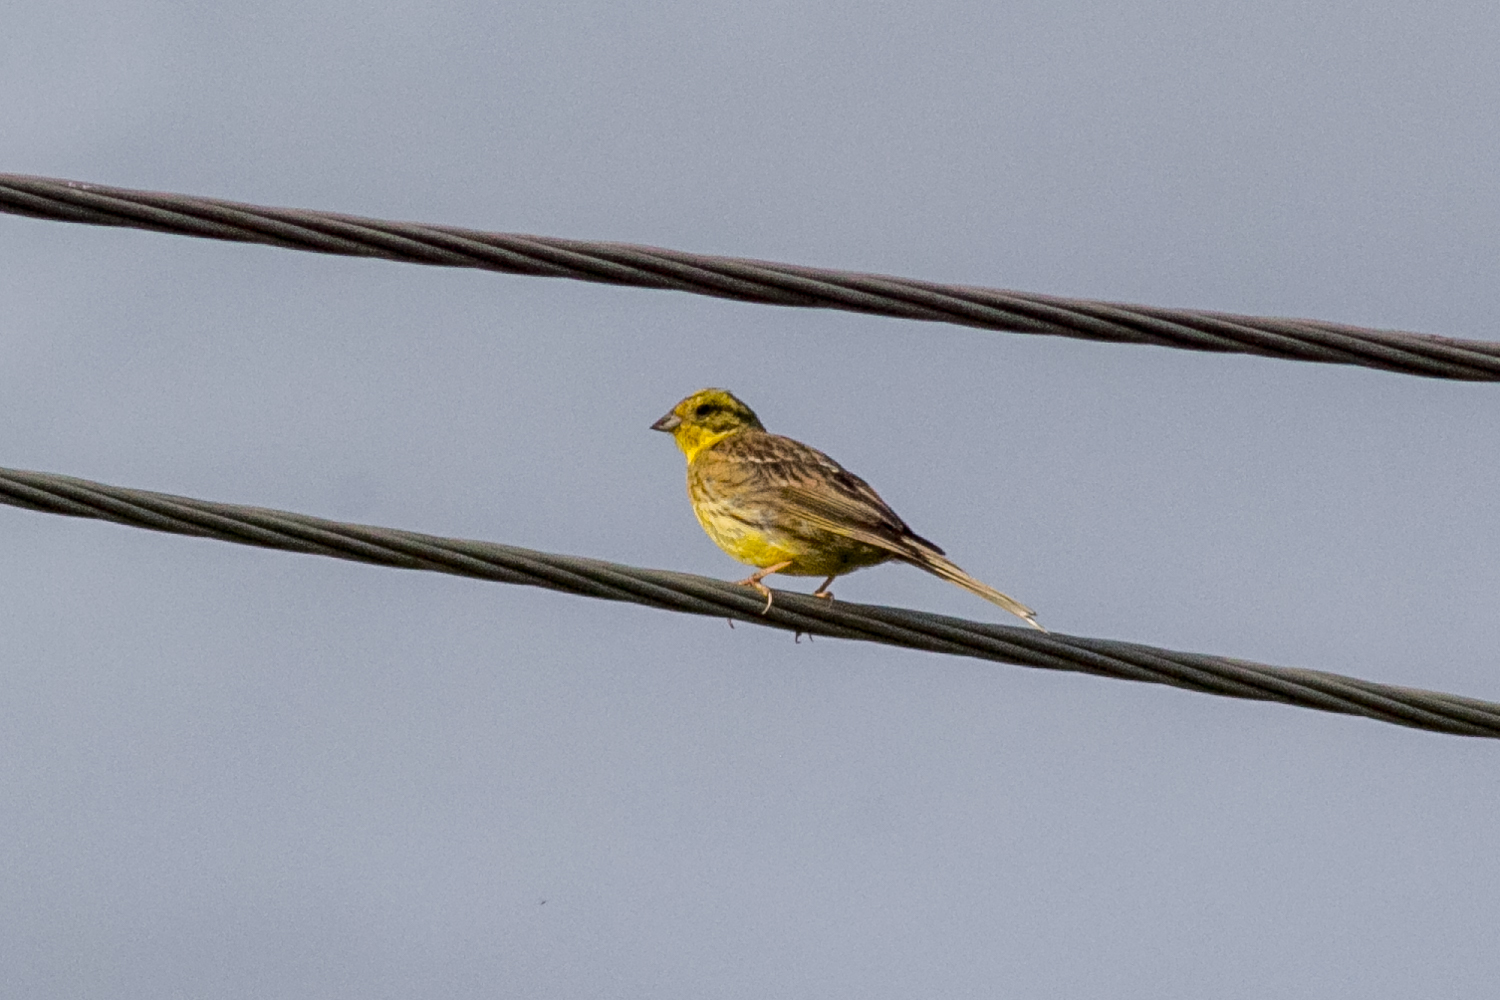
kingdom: Animalia
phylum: Chordata
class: Aves
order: Passeriformes
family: Emberizidae
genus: Emberiza
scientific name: Emberiza citrinella
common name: Yellowhammer
